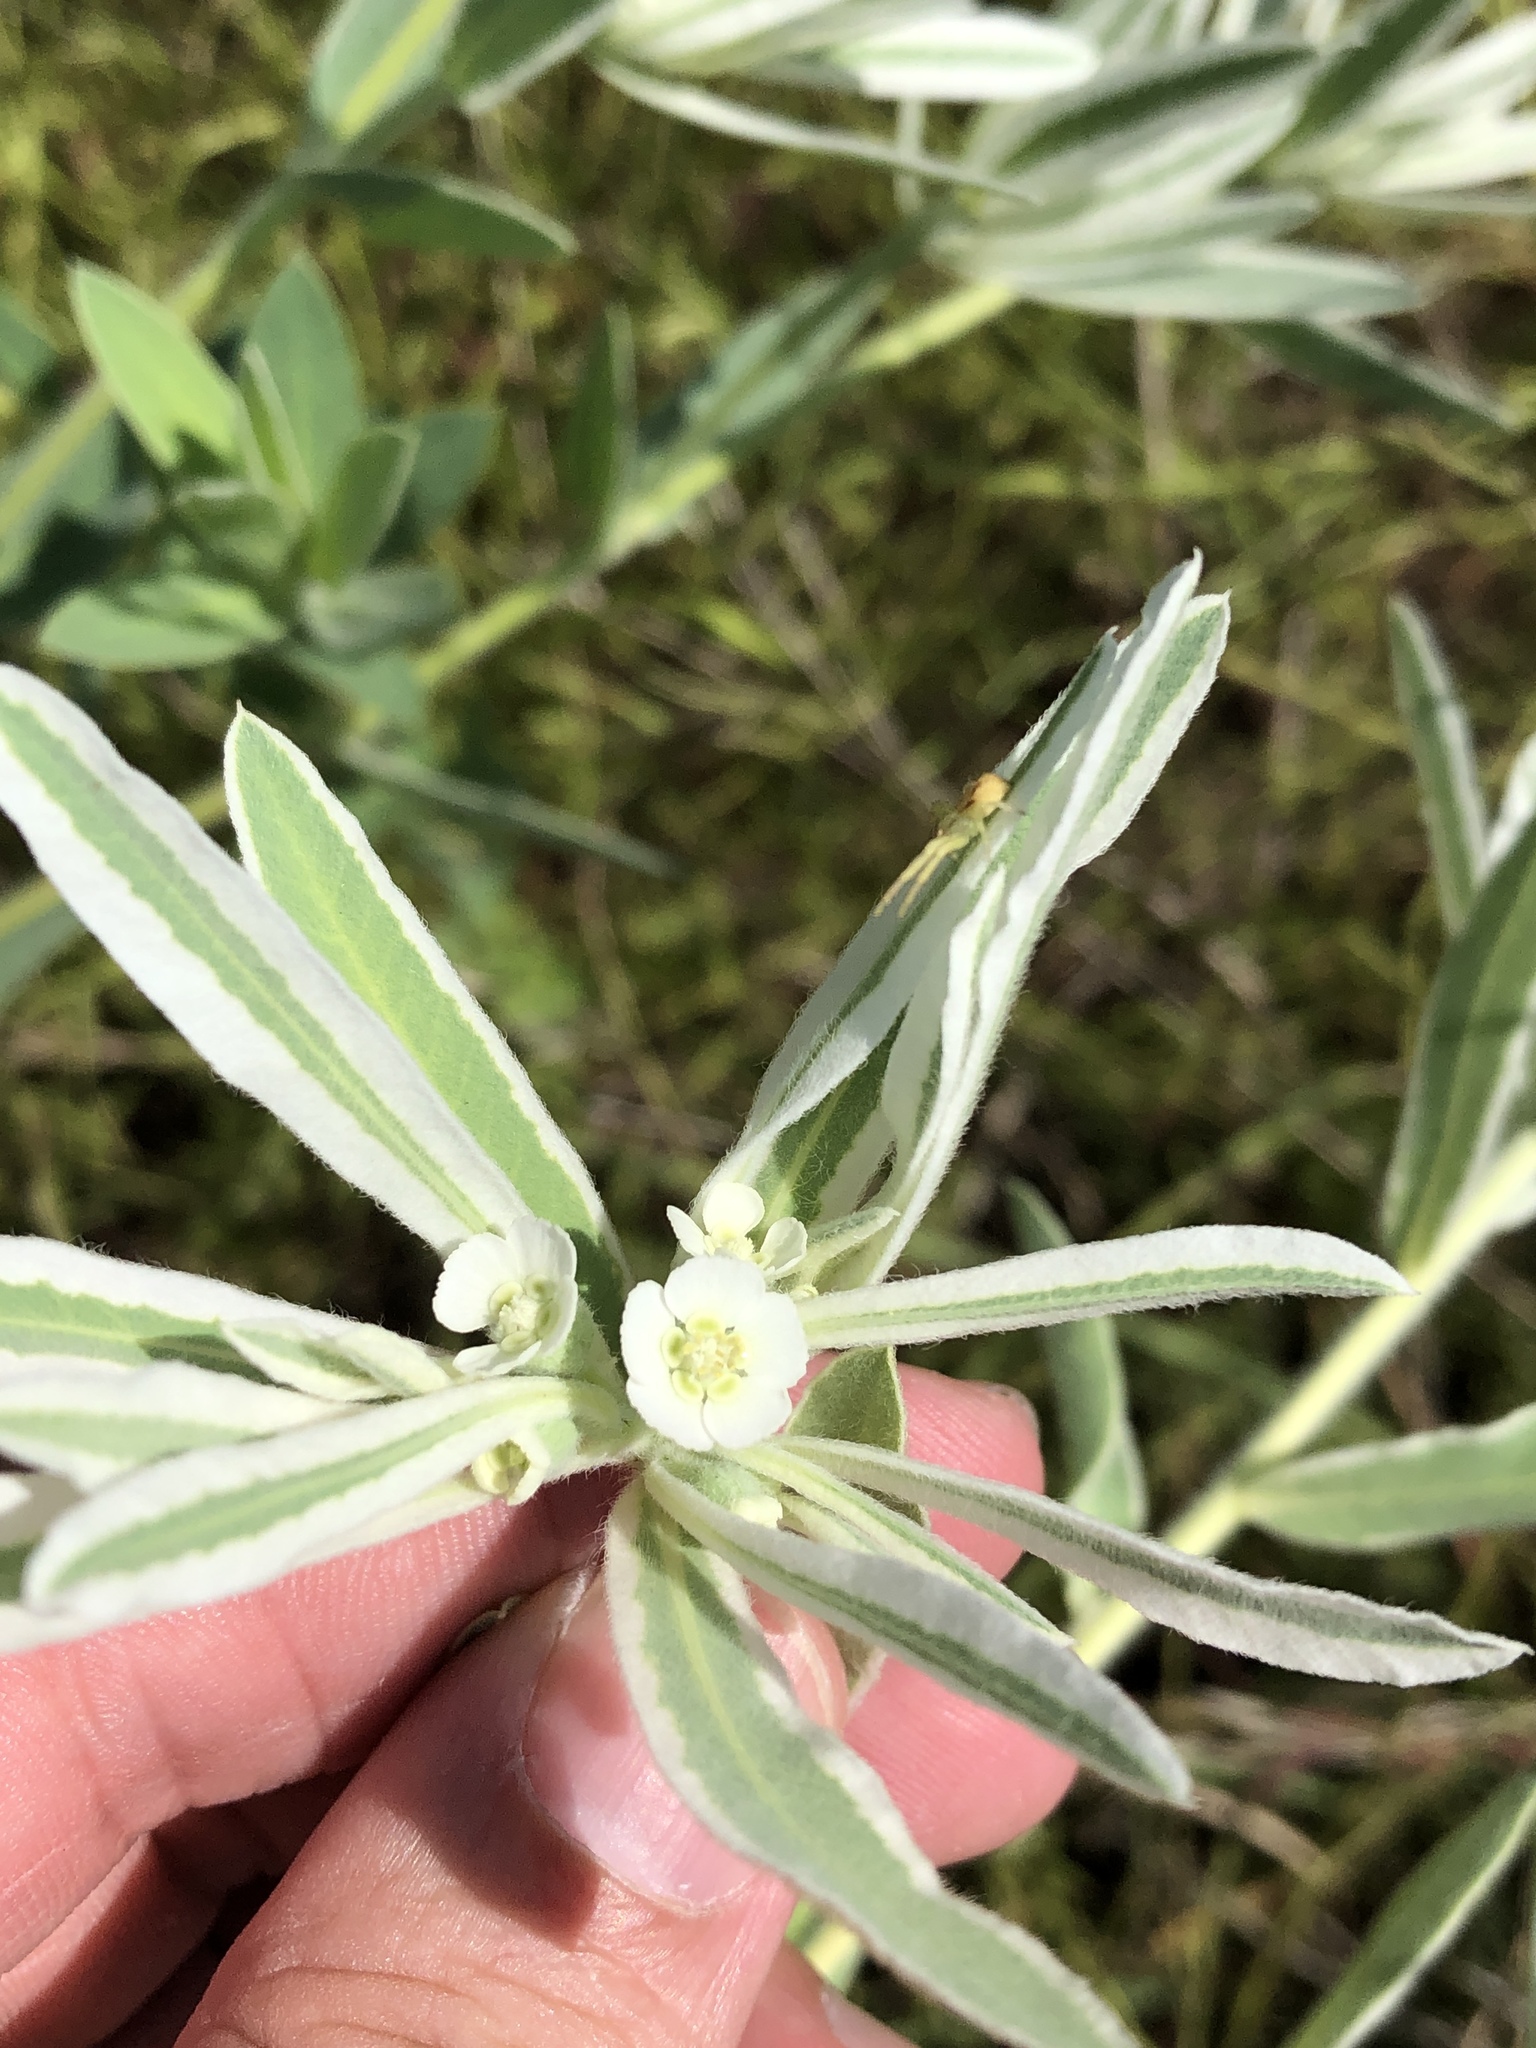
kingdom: Plantae
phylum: Tracheophyta
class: Magnoliopsida
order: Malpighiales
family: Euphorbiaceae
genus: Euphorbia
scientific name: Euphorbia bicolor
